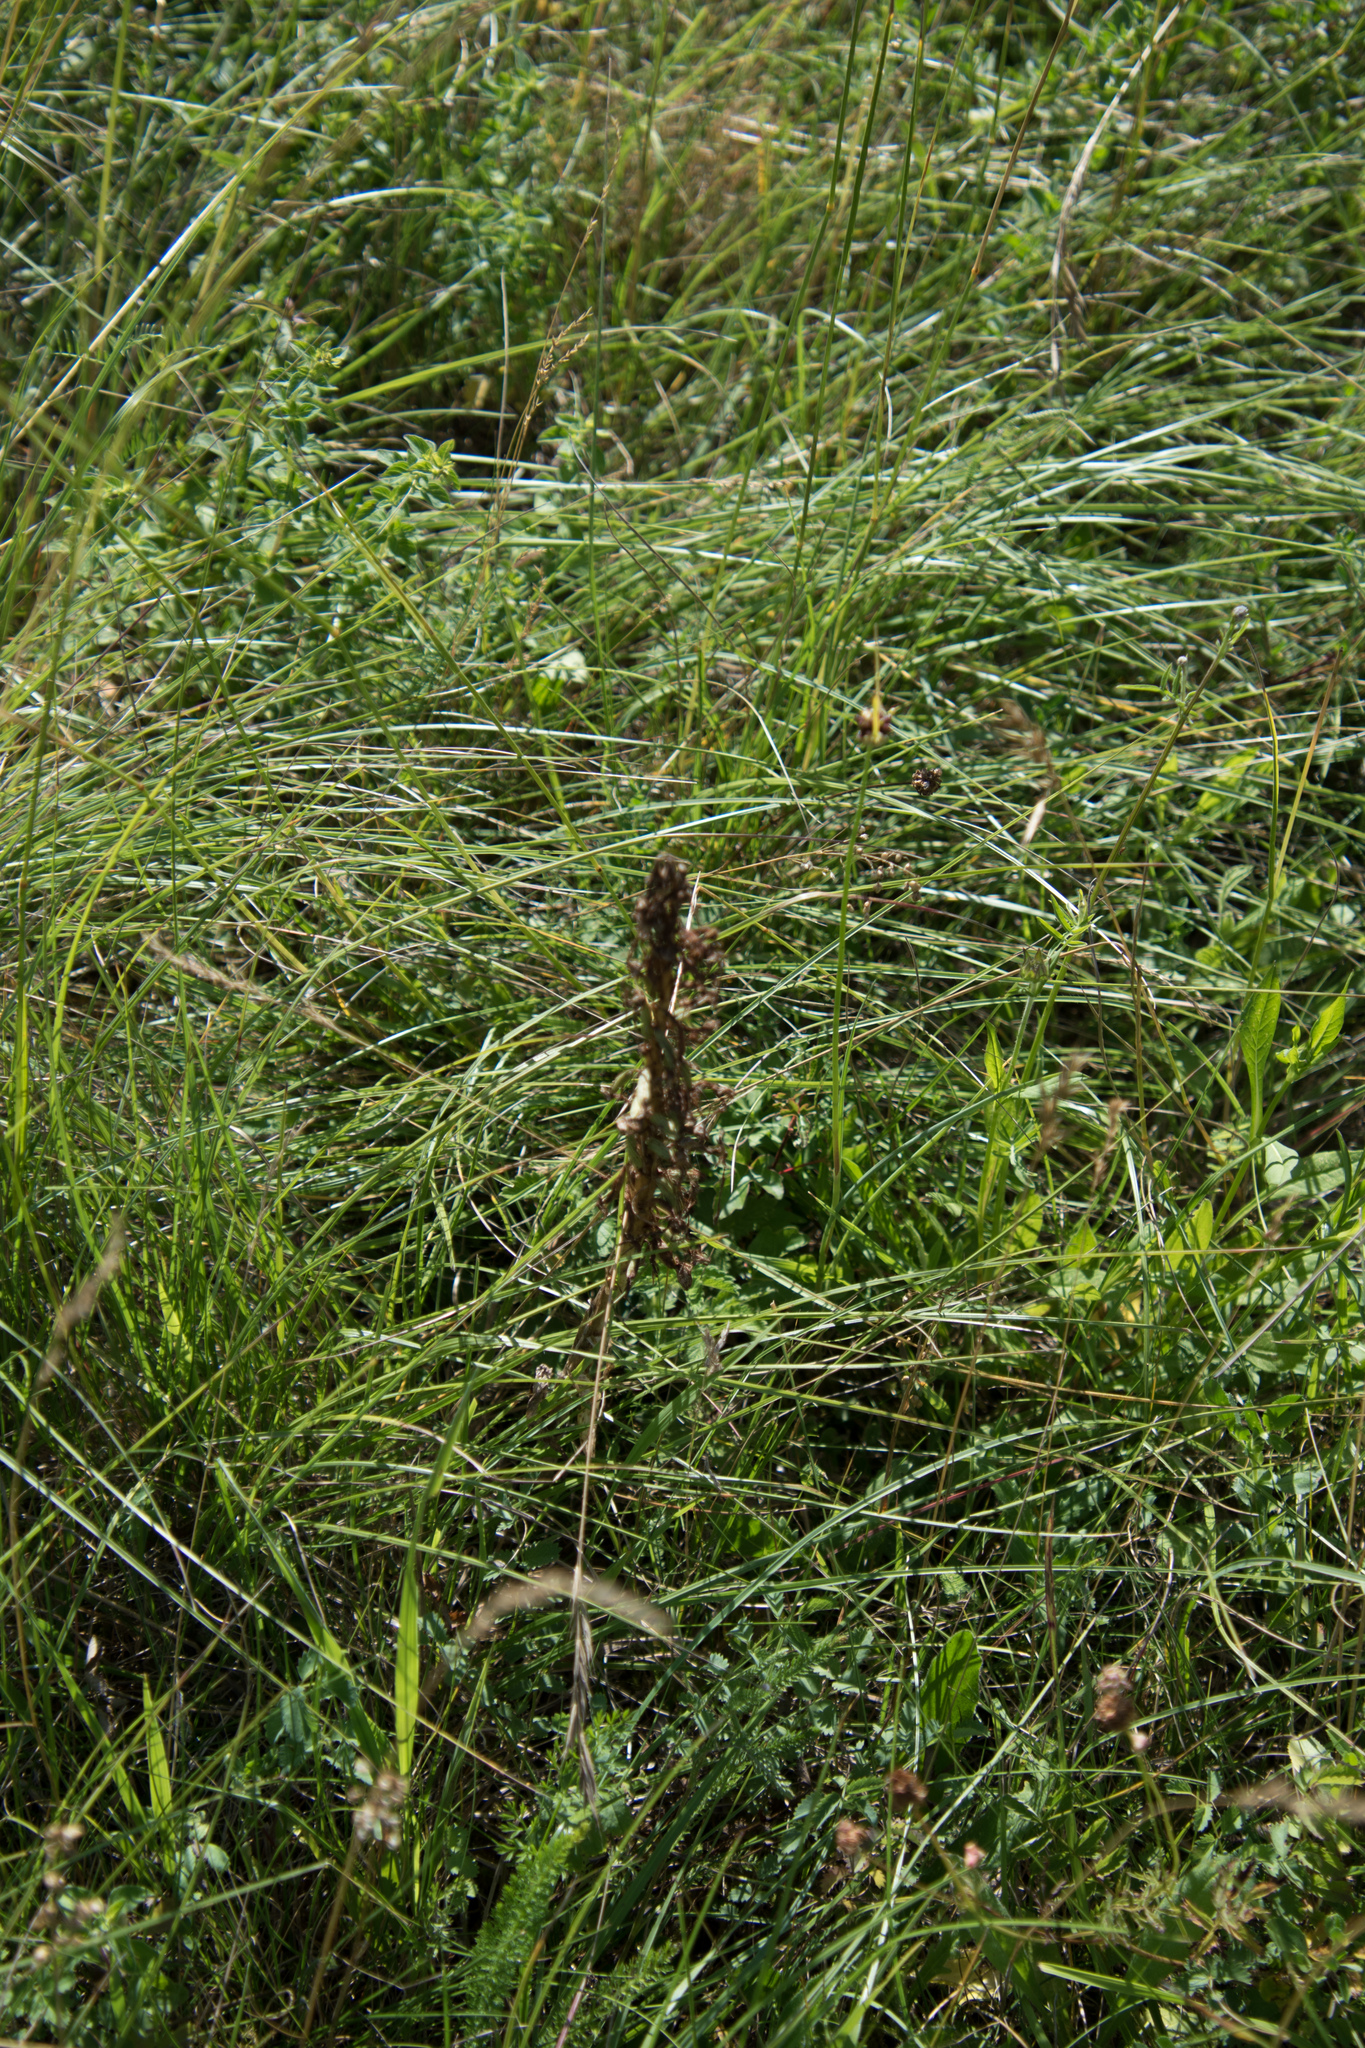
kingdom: Plantae
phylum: Tracheophyta
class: Liliopsida
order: Asparagales
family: Orchidaceae
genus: Himantoglossum
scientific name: Himantoglossum hircinum
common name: Lizard orchid
